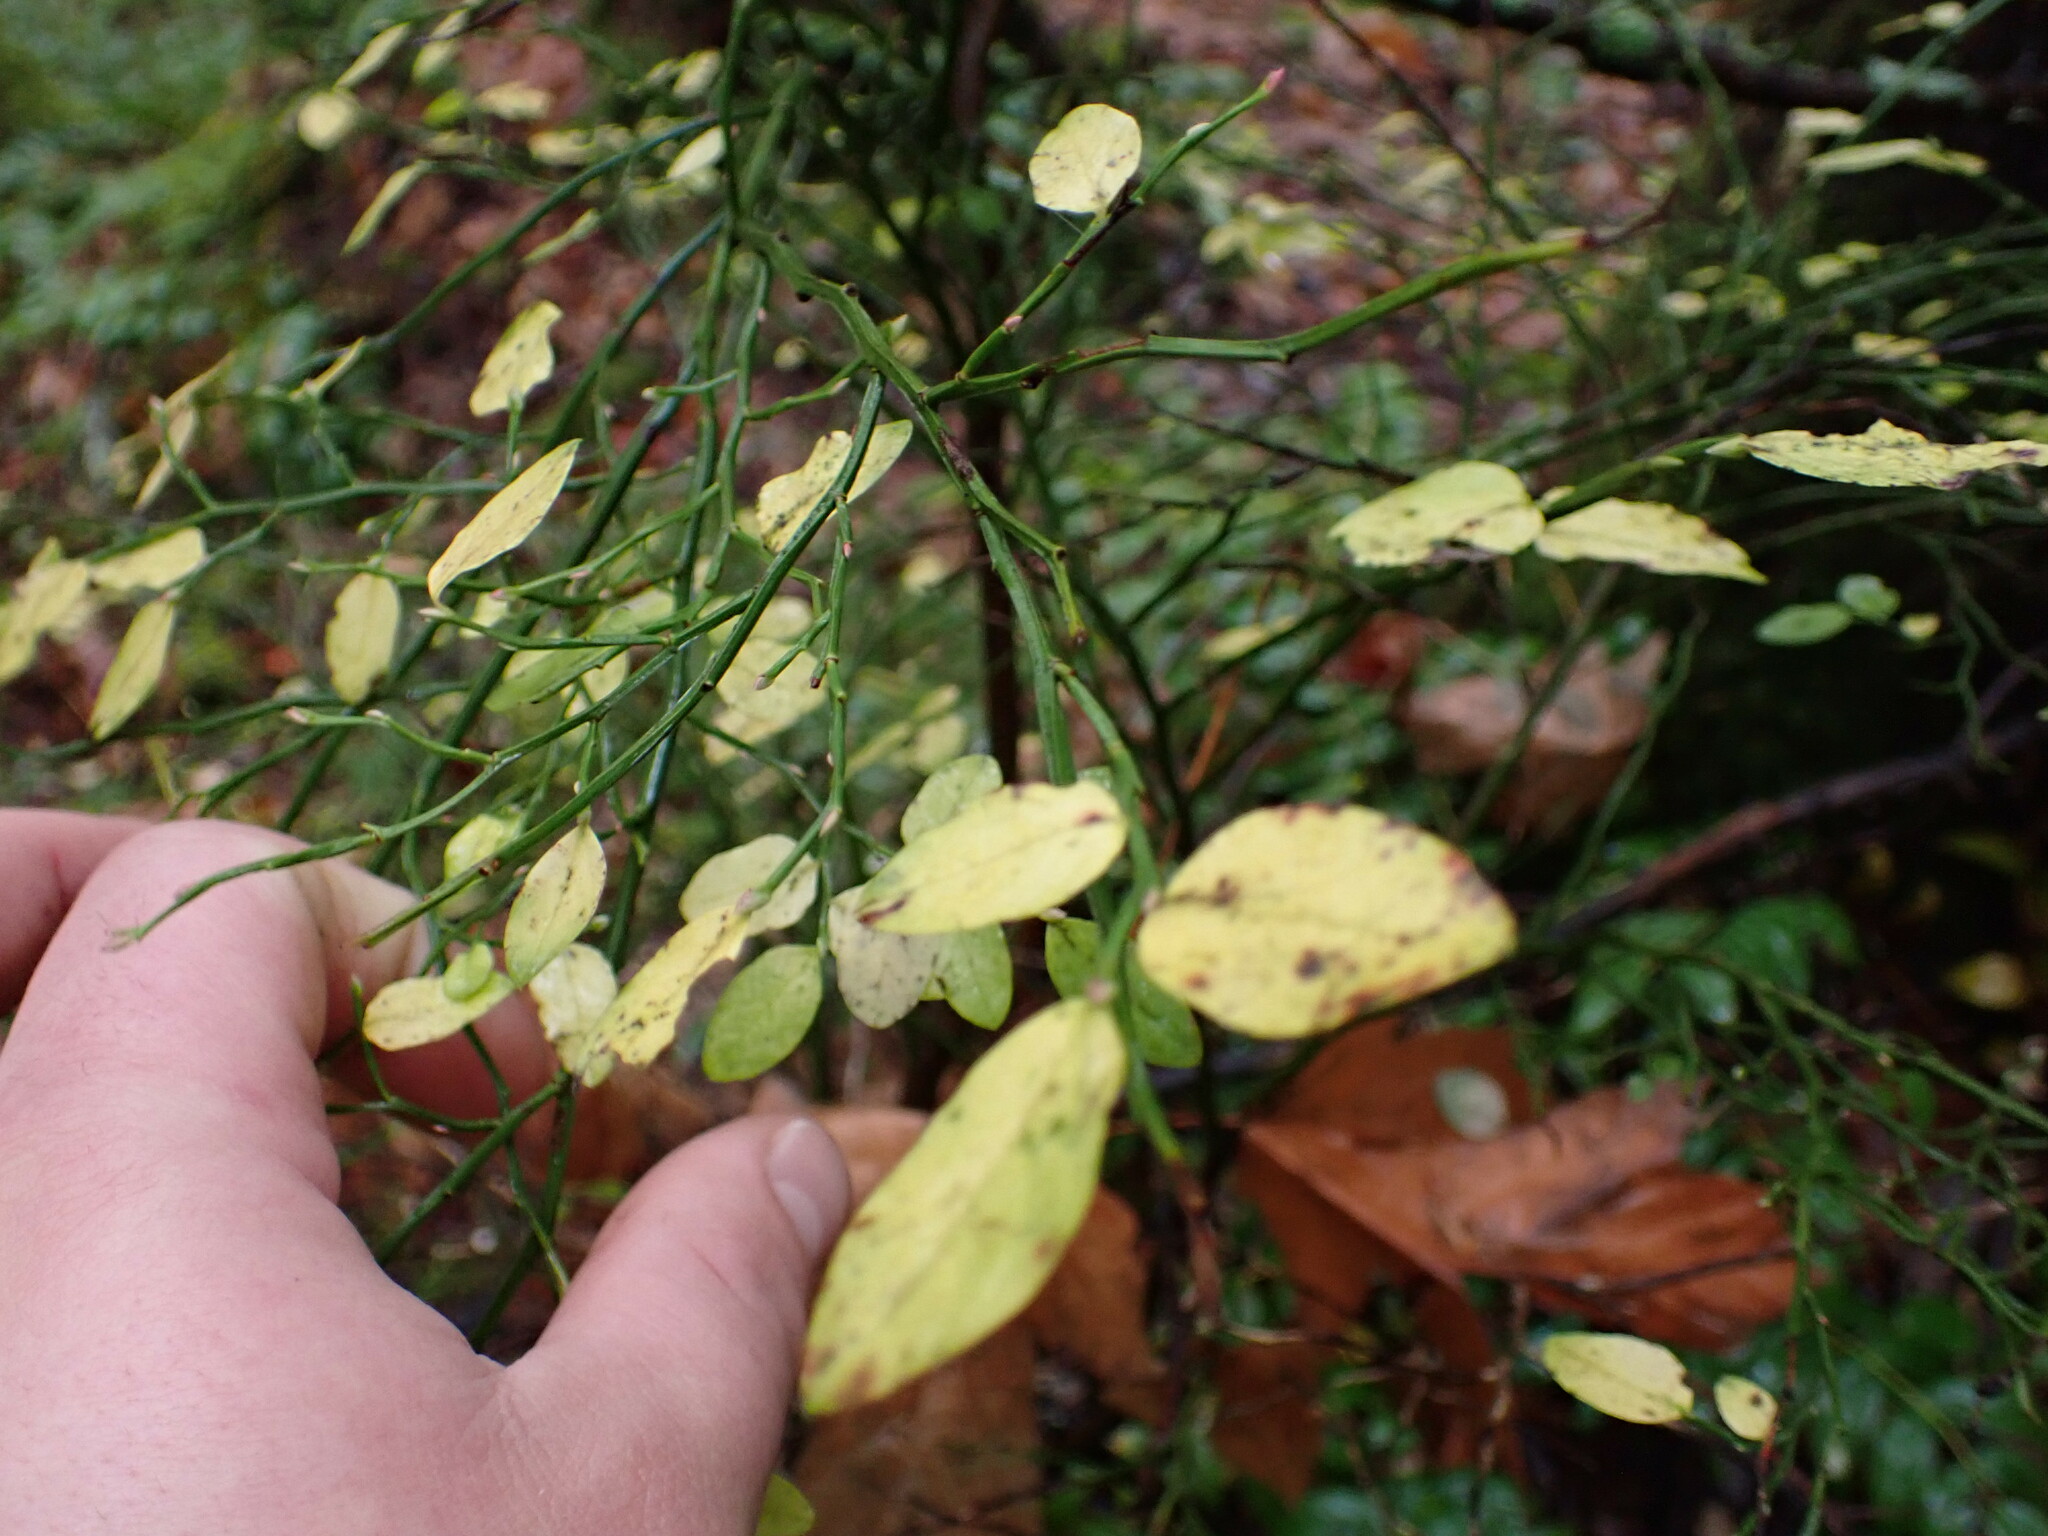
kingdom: Plantae
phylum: Tracheophyta
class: Magnoliopsida
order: Ericales
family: Ericaceae
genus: Vaccinium
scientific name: Vaccinium parvifolium
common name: Red-huckleberry
